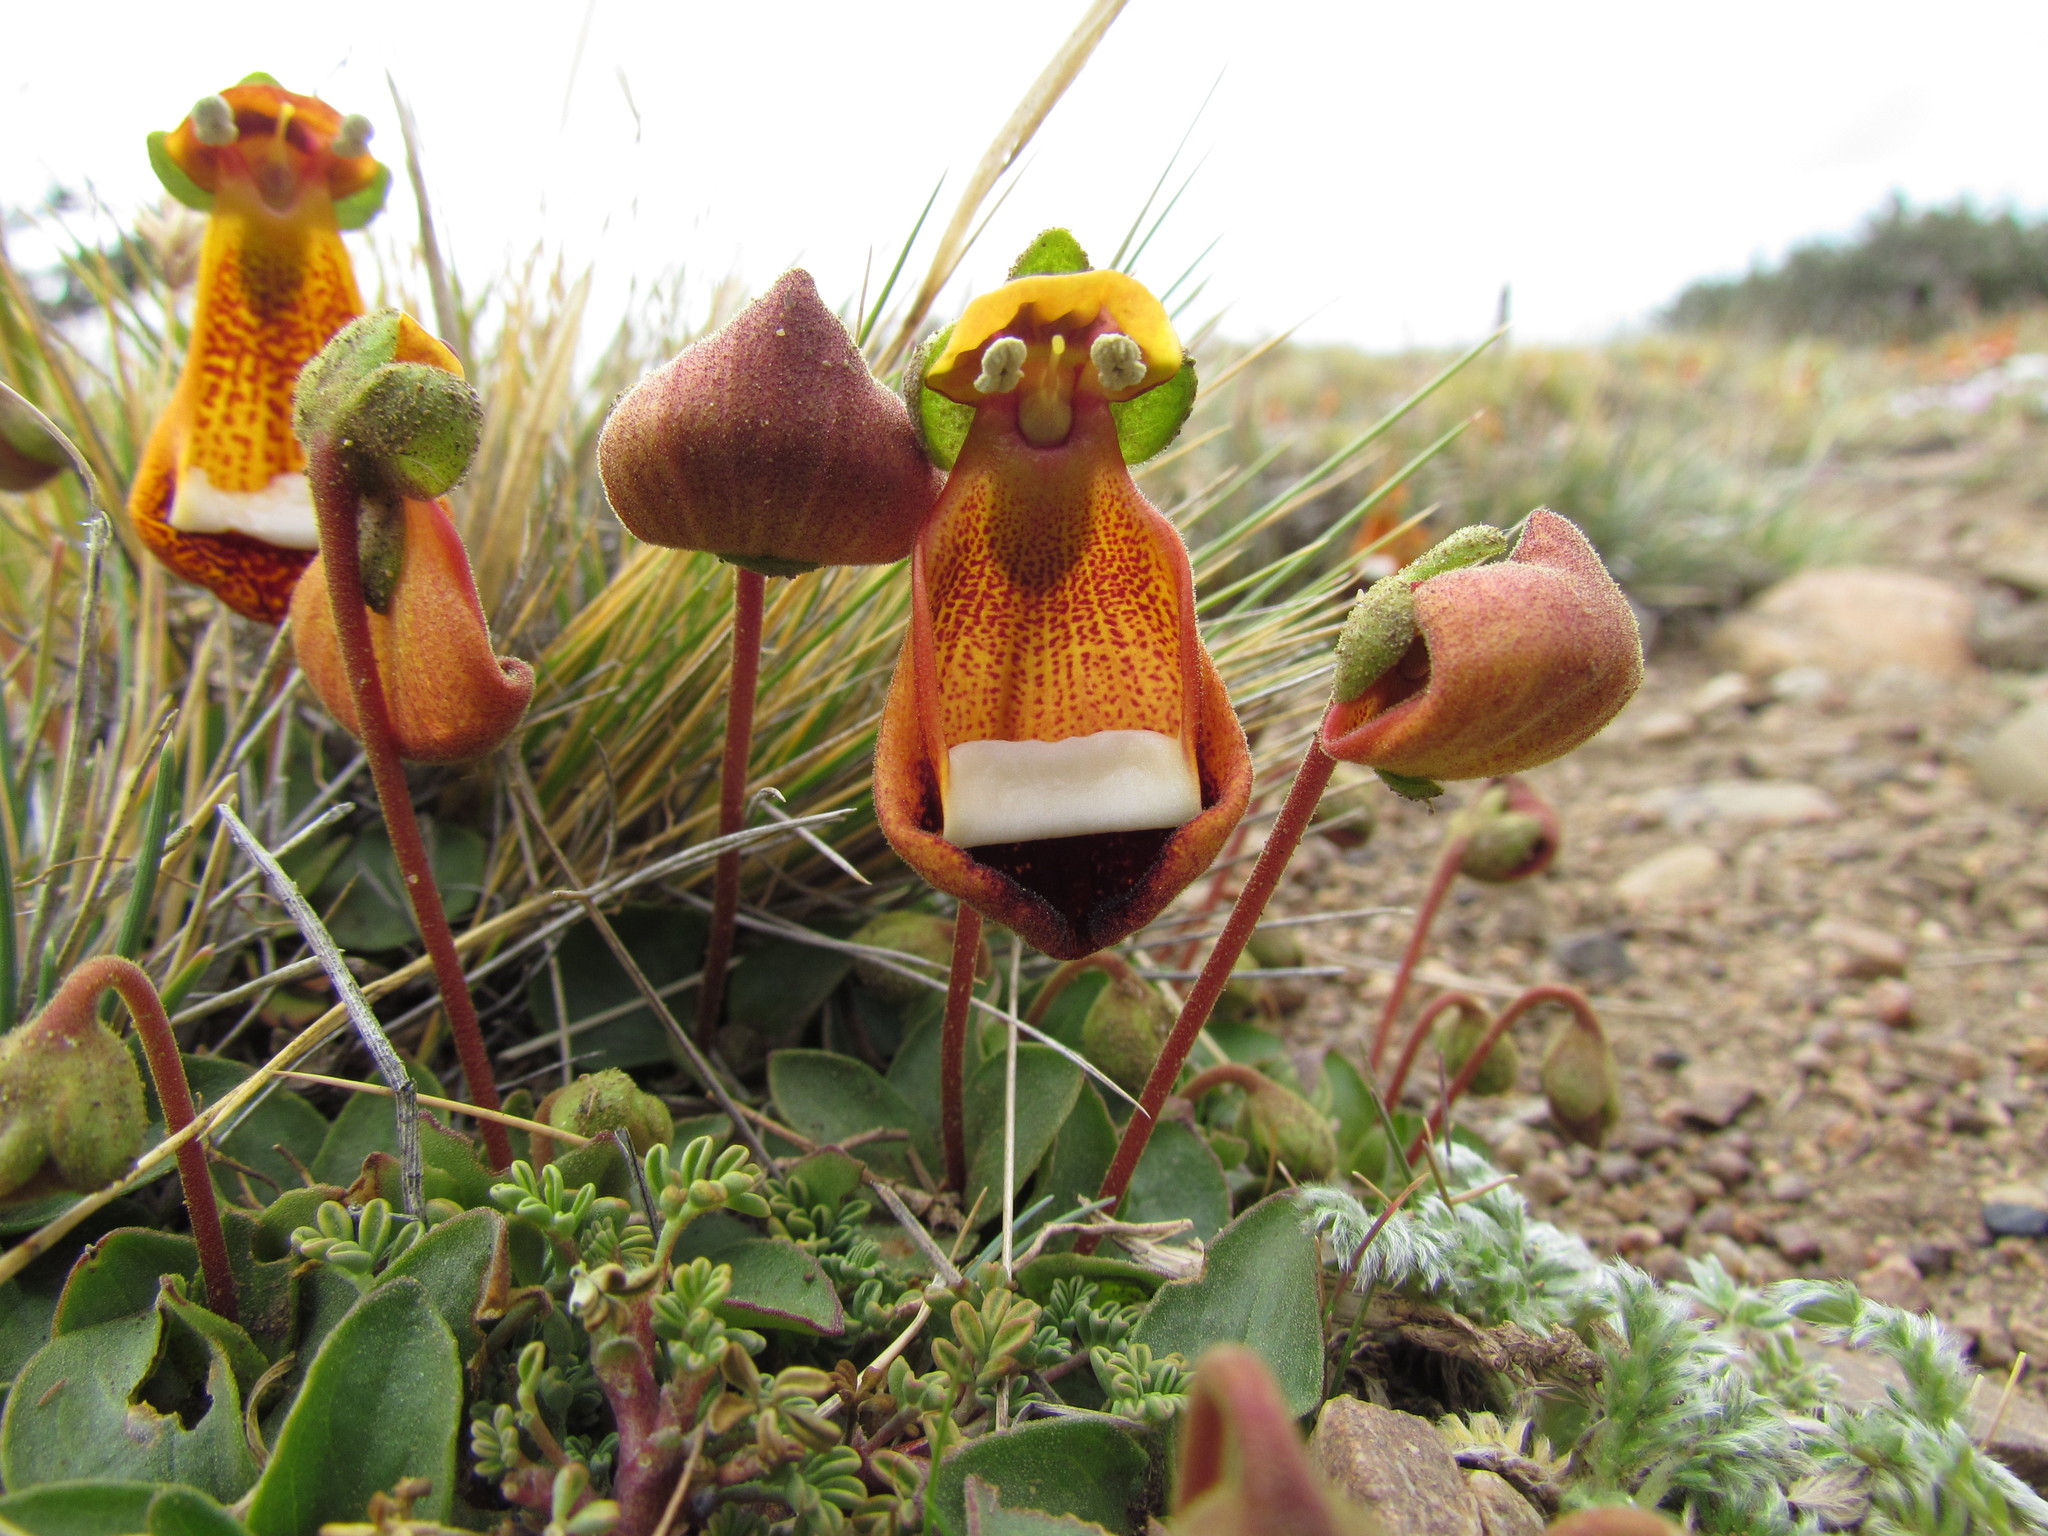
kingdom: Plantae
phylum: Tracheophyta
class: Magnoliopsida
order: Lamiales
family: Calceolariaceae
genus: Calceolaria
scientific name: Calceolaria uniflora
